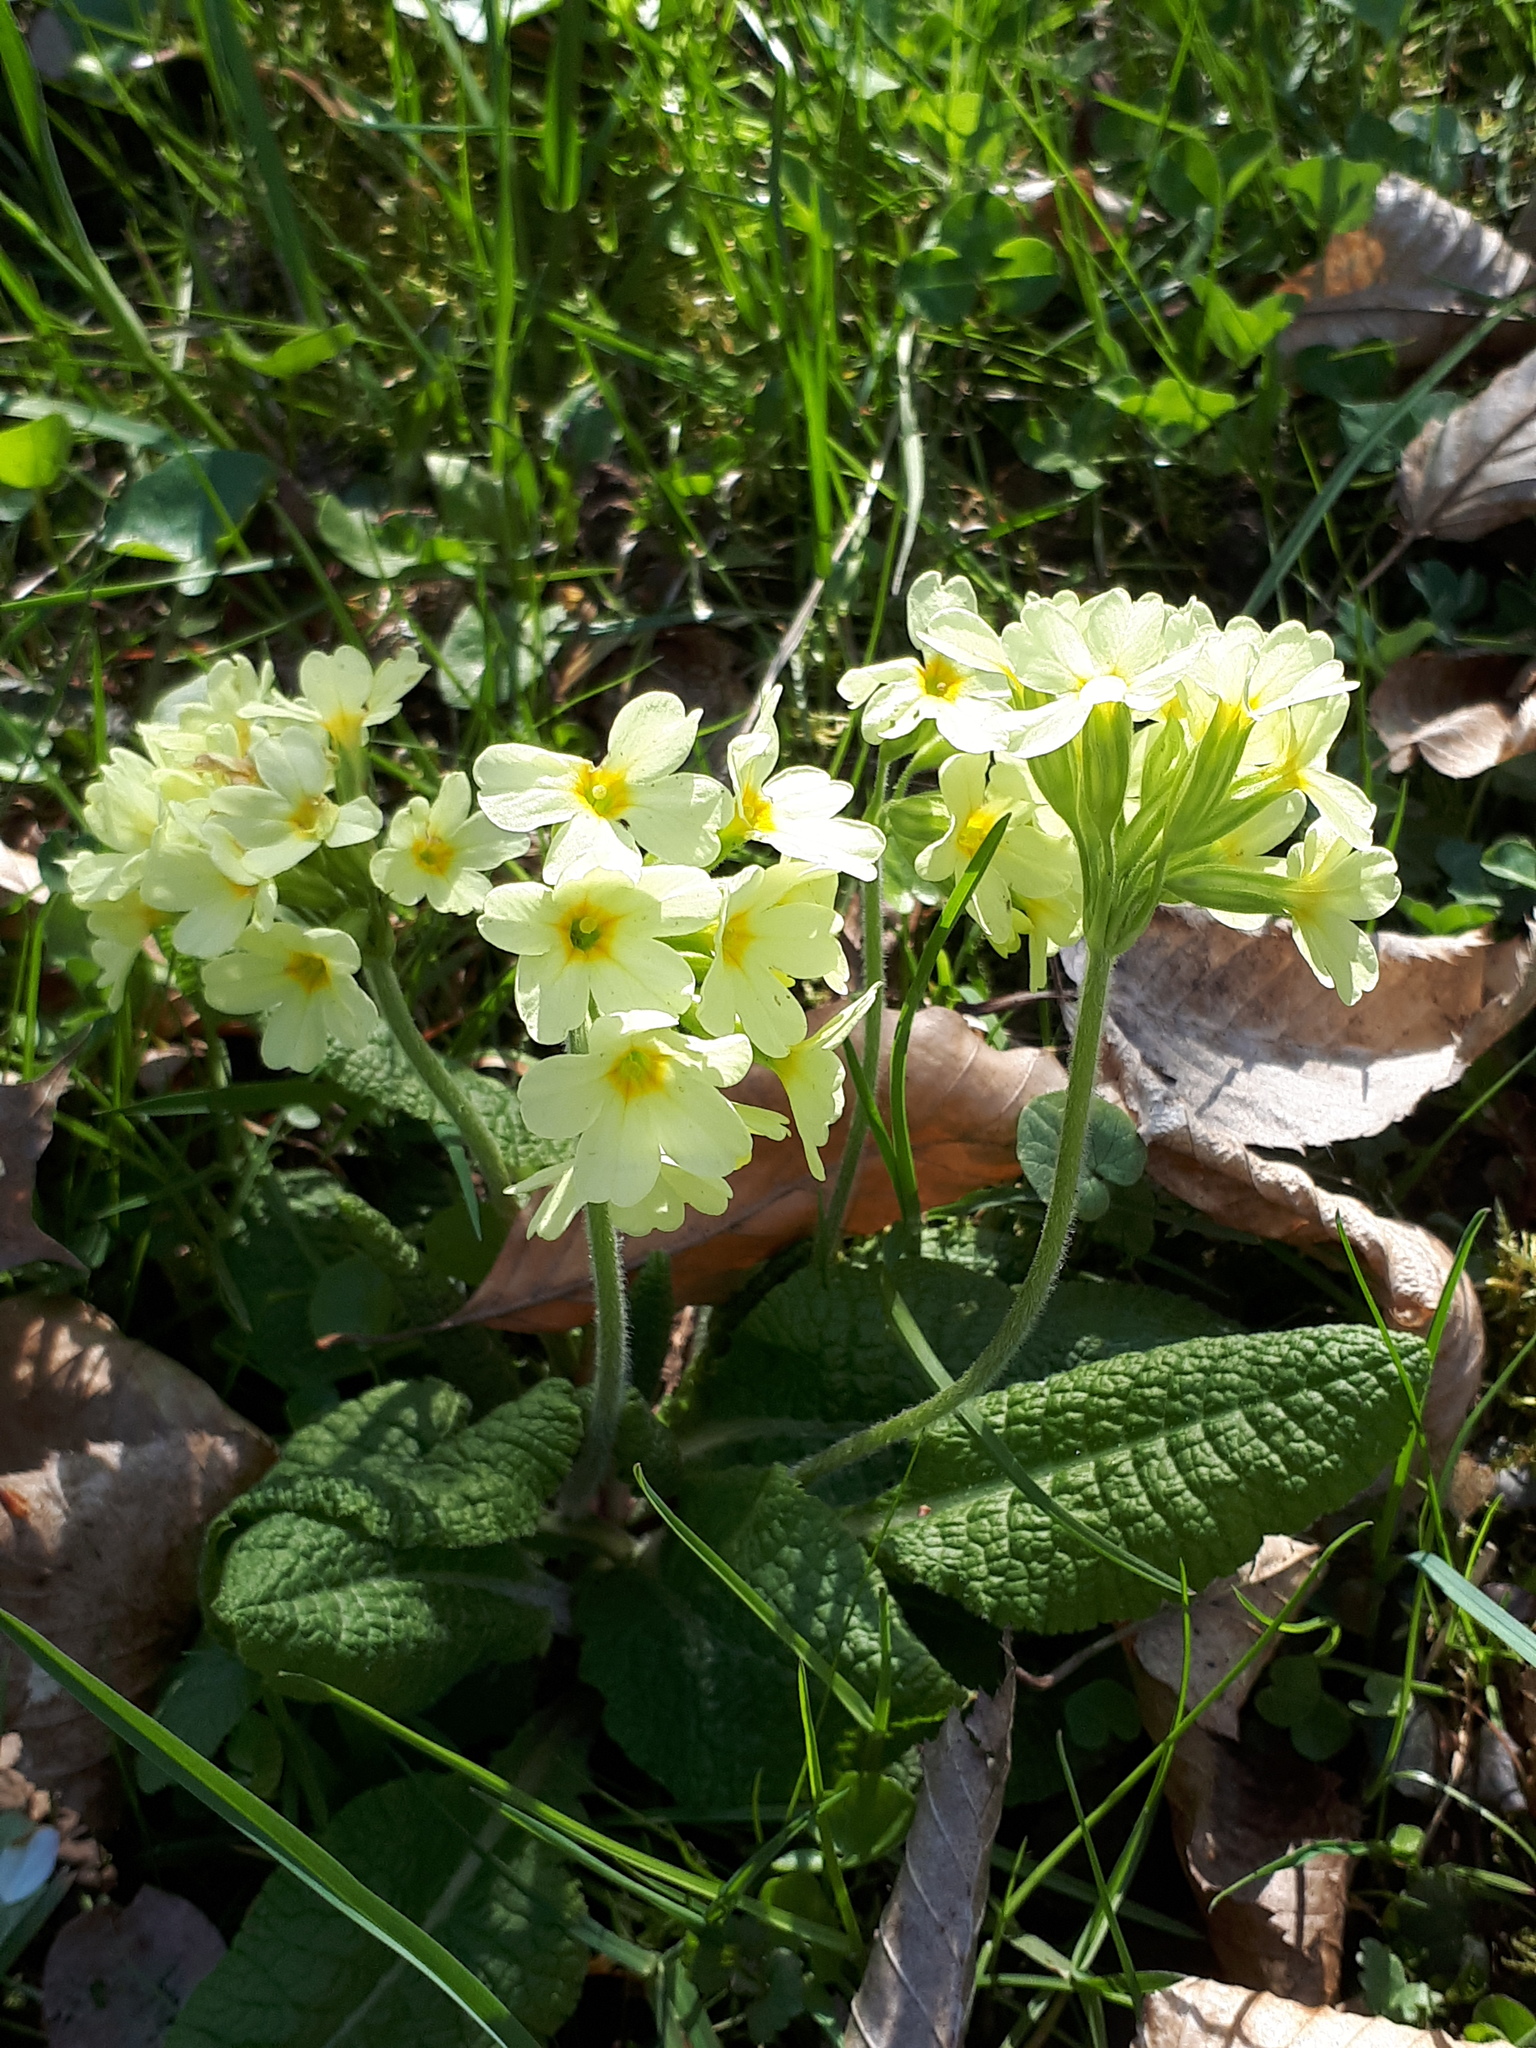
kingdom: Plantae
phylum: Tracheophyta
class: Magnoliopsida
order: Ericales
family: Primulaceae
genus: Primula
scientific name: Primula elatior
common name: Oxlip
